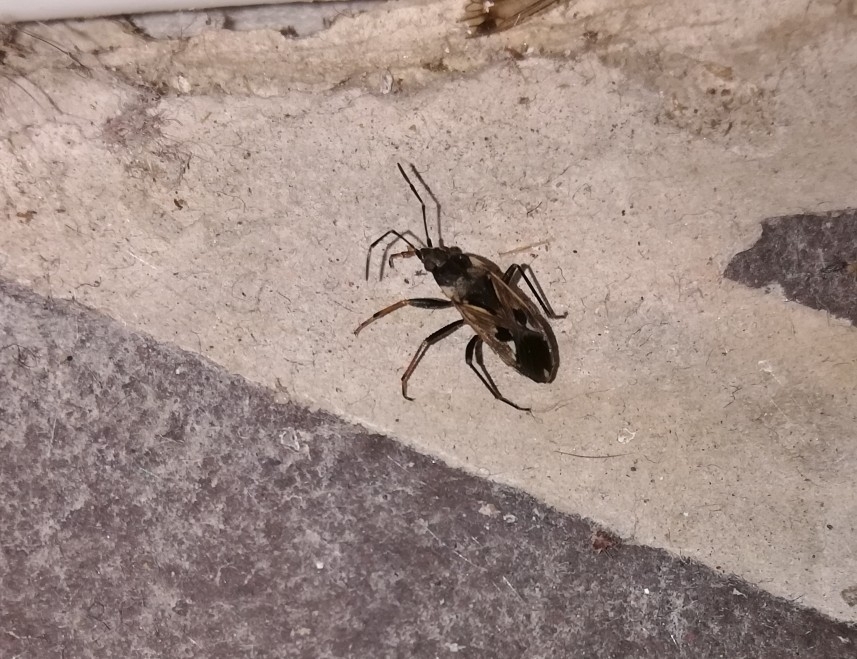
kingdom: Animalia
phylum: Arthropoda
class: Insecta
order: Hemiptera
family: Rhyparochromidae
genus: Rhyparochromus
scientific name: Rhyparochromus vulgaris
